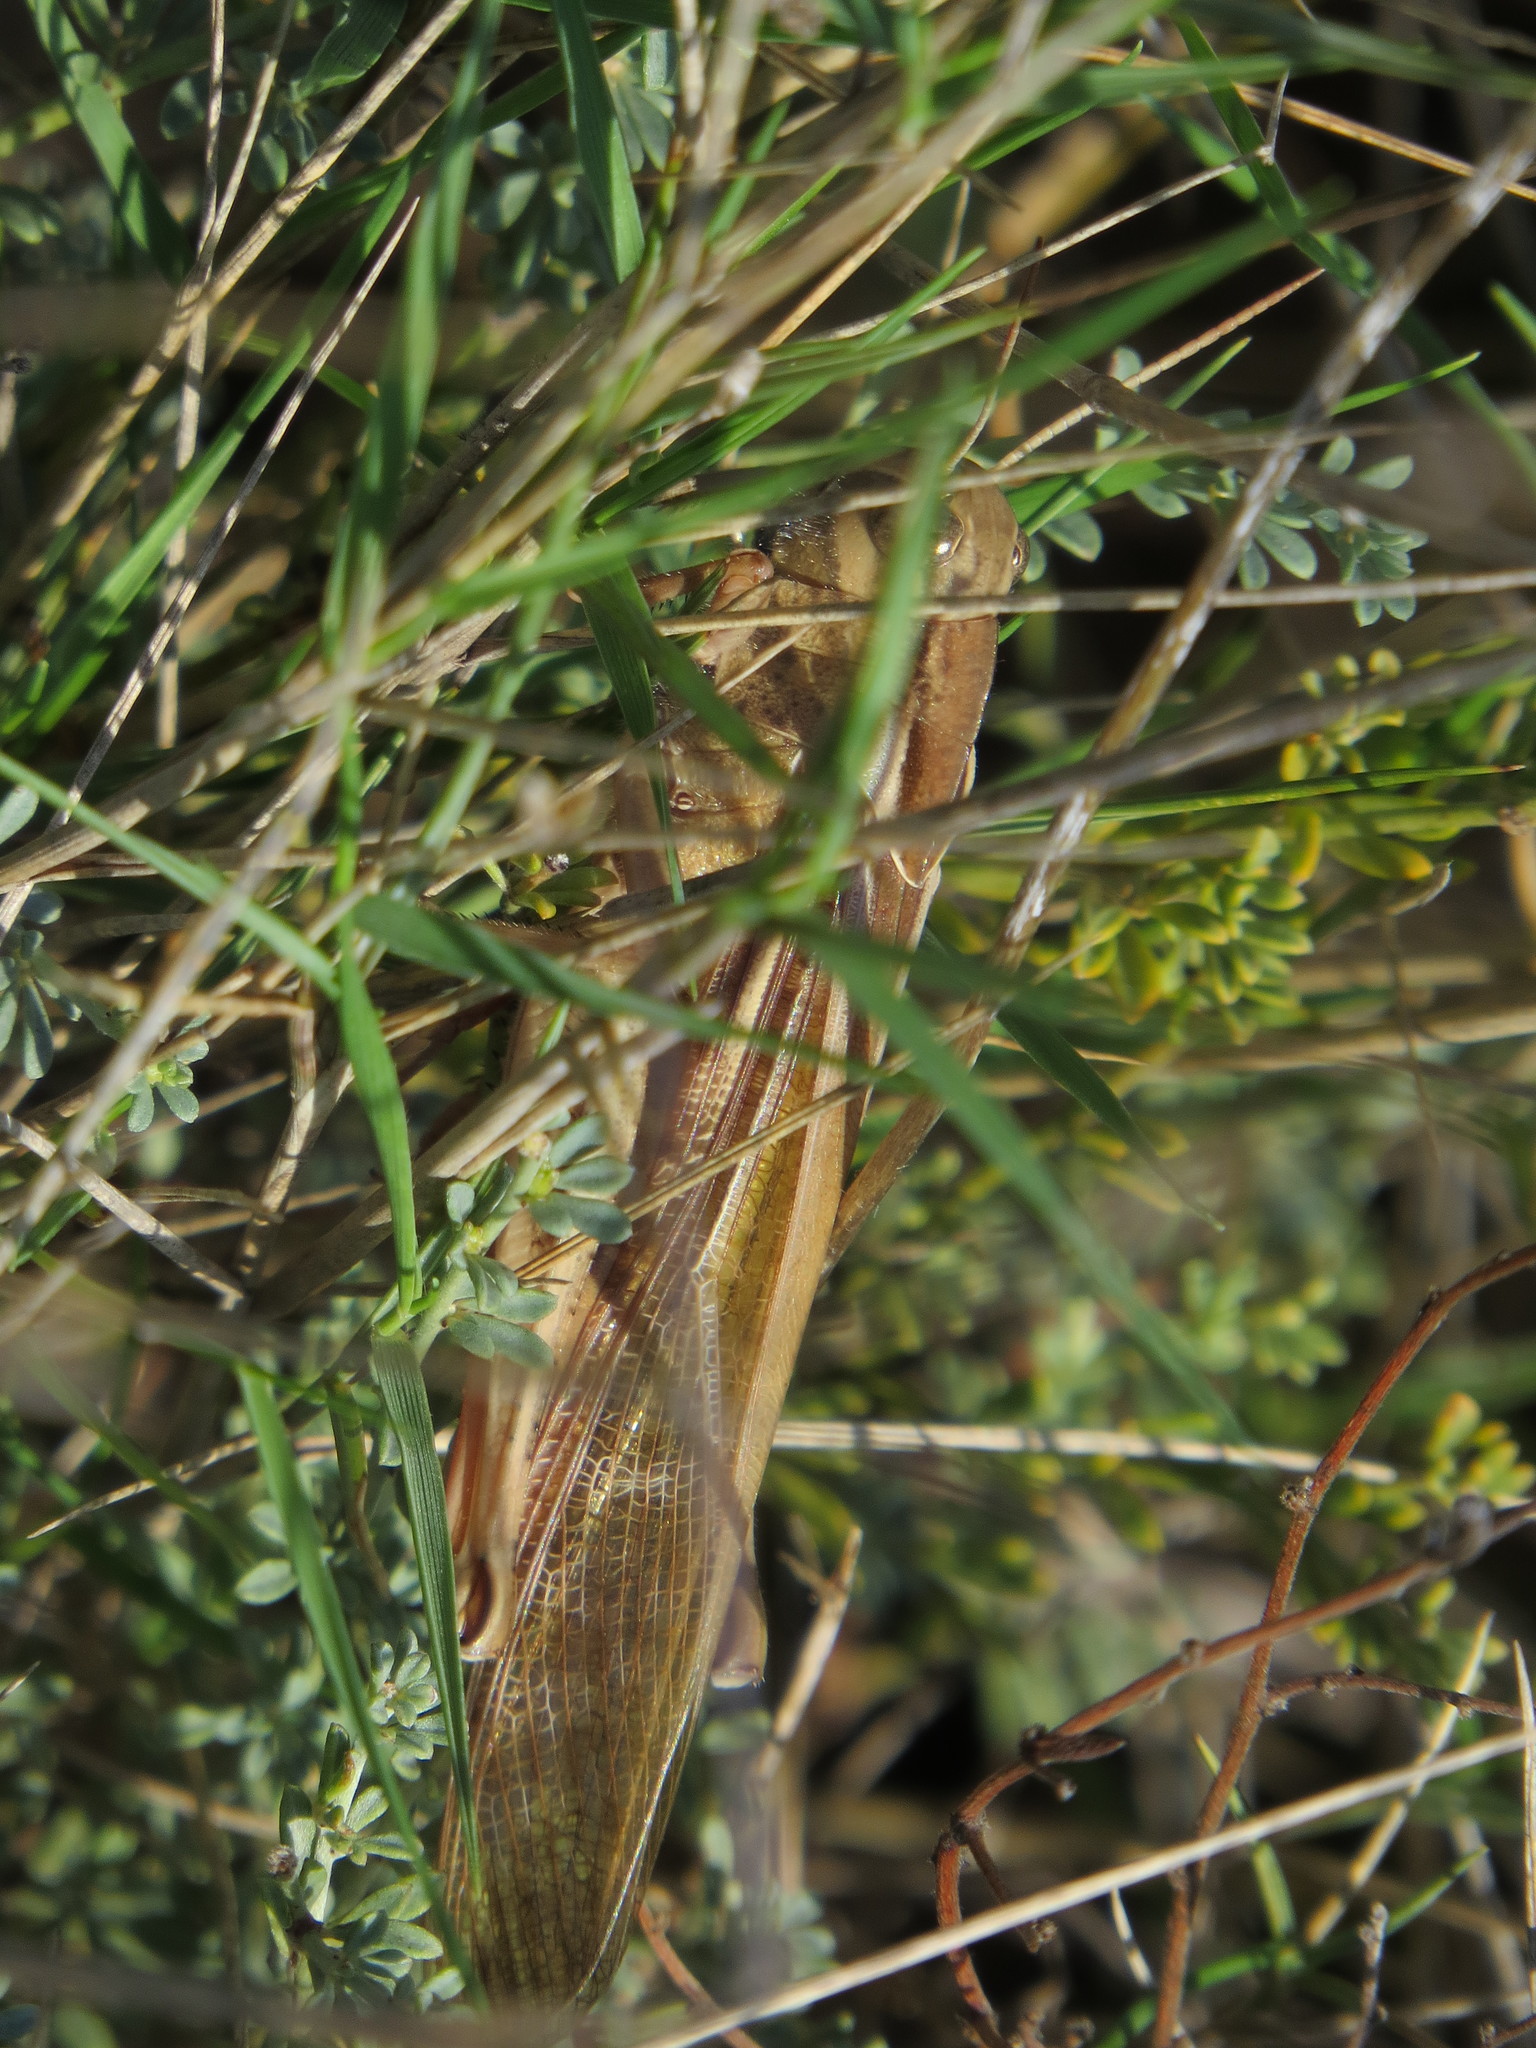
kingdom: Animalia
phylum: Arthropoda
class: Insecta
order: Orthoptera
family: Acrididae
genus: Locusta
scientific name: Locusta migratoria
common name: Migratory locust
